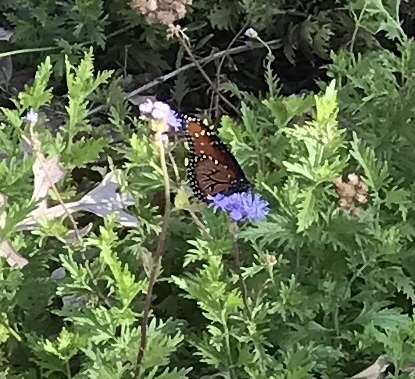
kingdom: Animalia
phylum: Arthropoda
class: Insecta
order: Lepidoptera
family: Nymphalidae
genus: Danaus
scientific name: Danaus gilippus
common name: Queen
